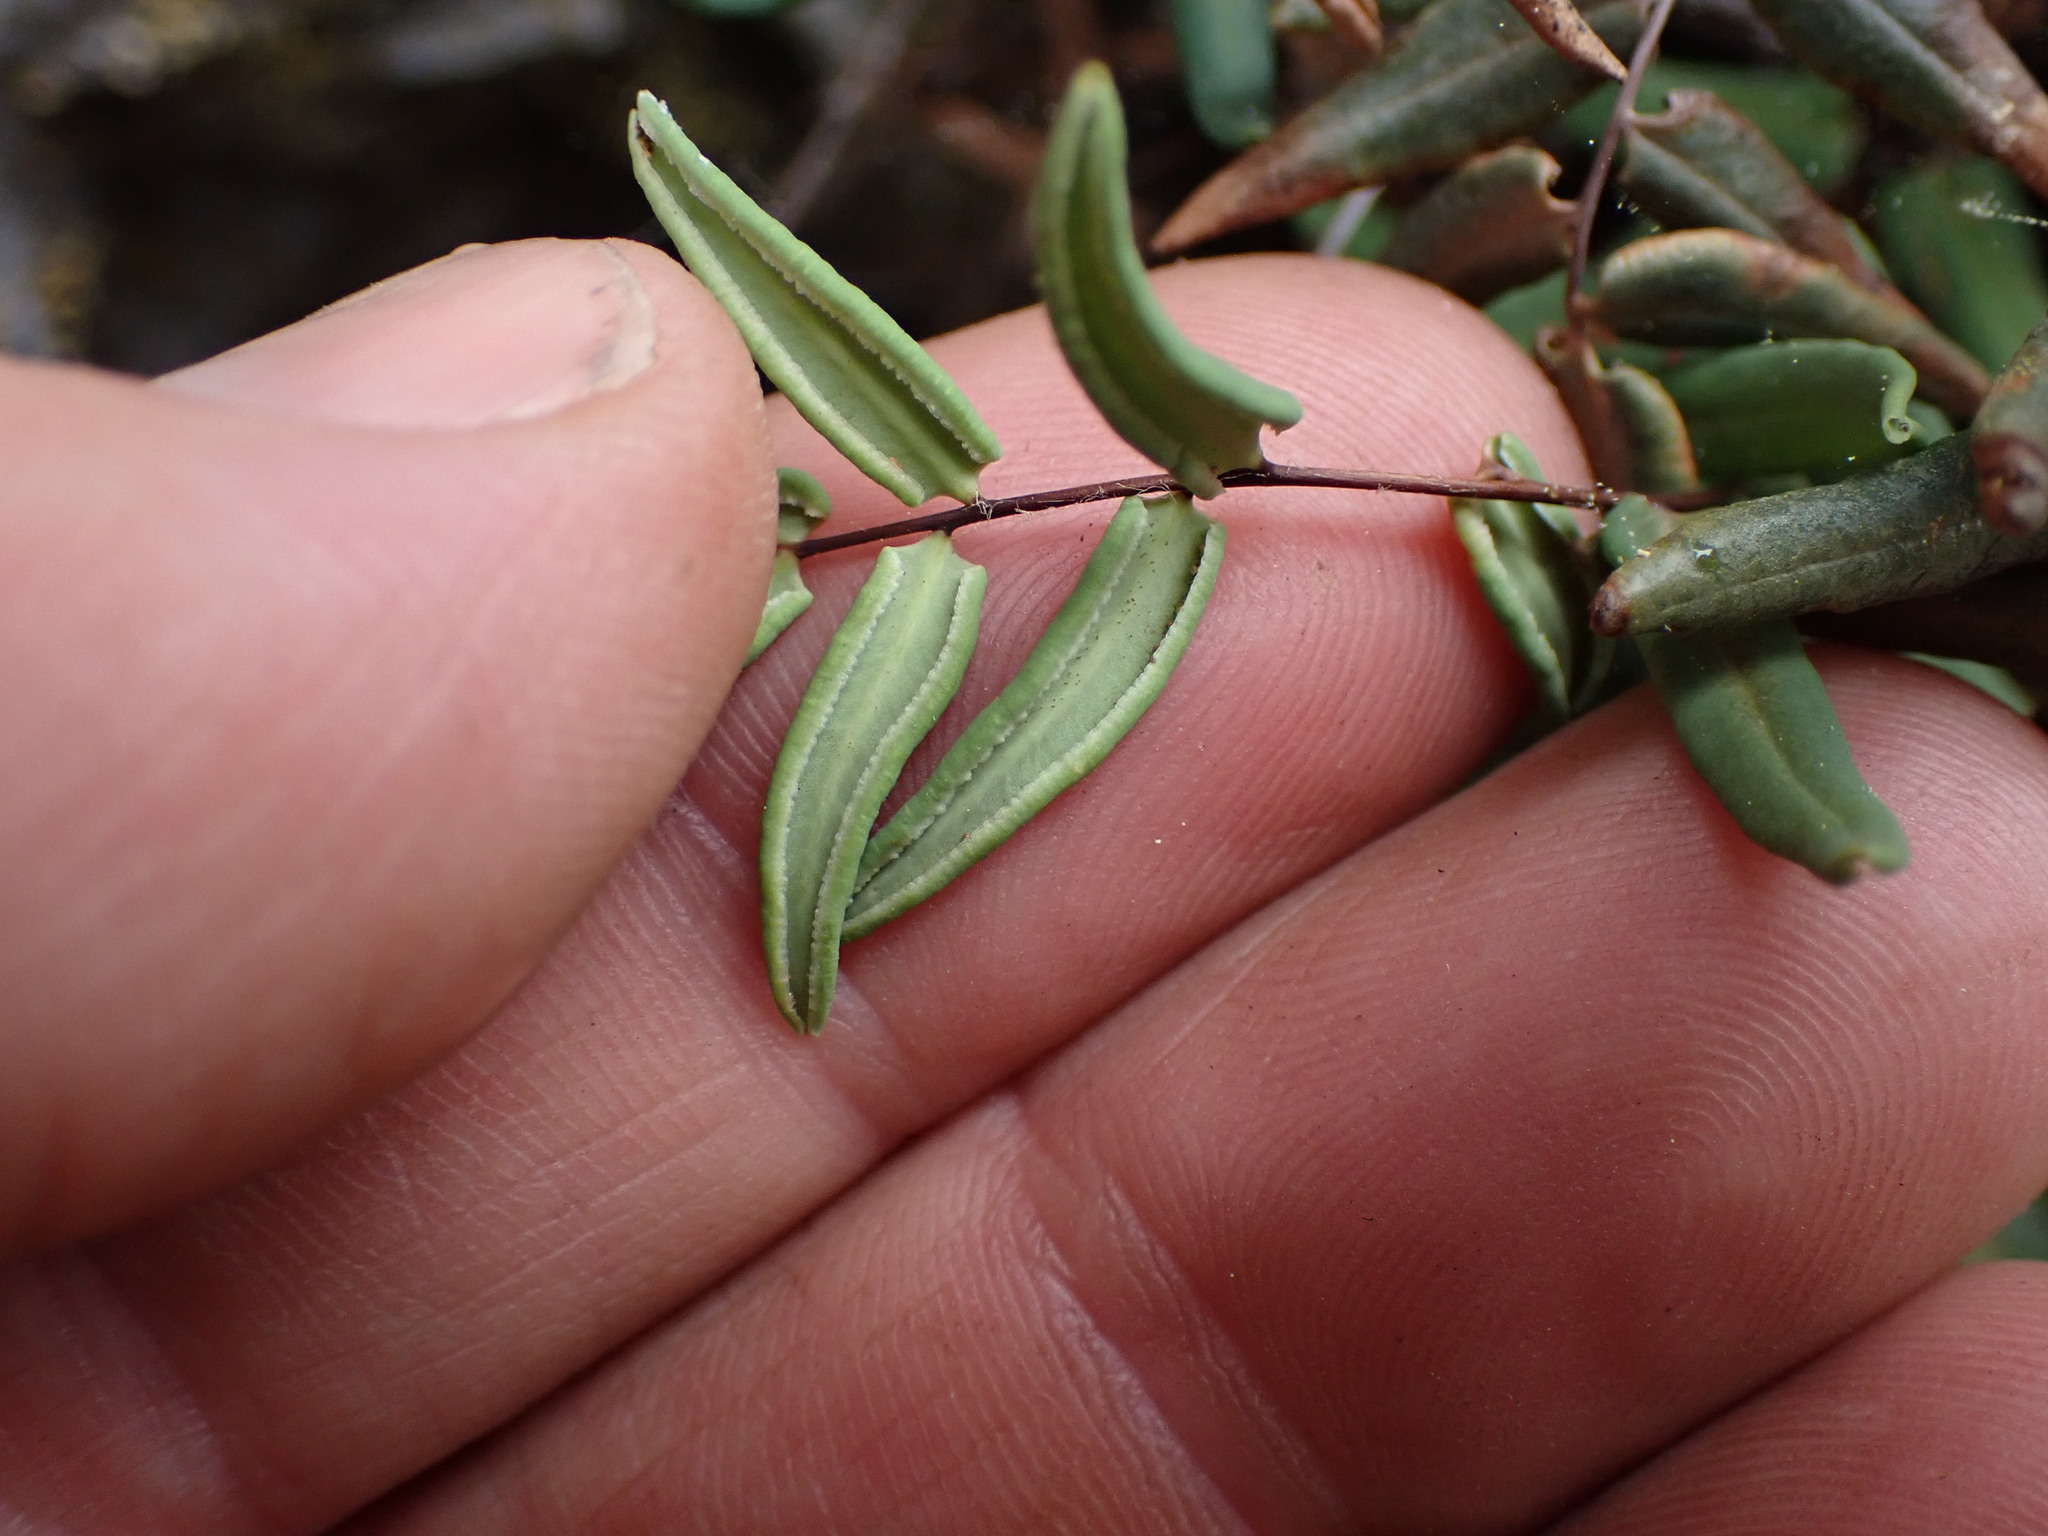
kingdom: Plantae
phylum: Tracheophyta
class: Polypodiopsida
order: Polypodiales
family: Pteridaceae
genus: Pellaea
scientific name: Pellaea glabella
